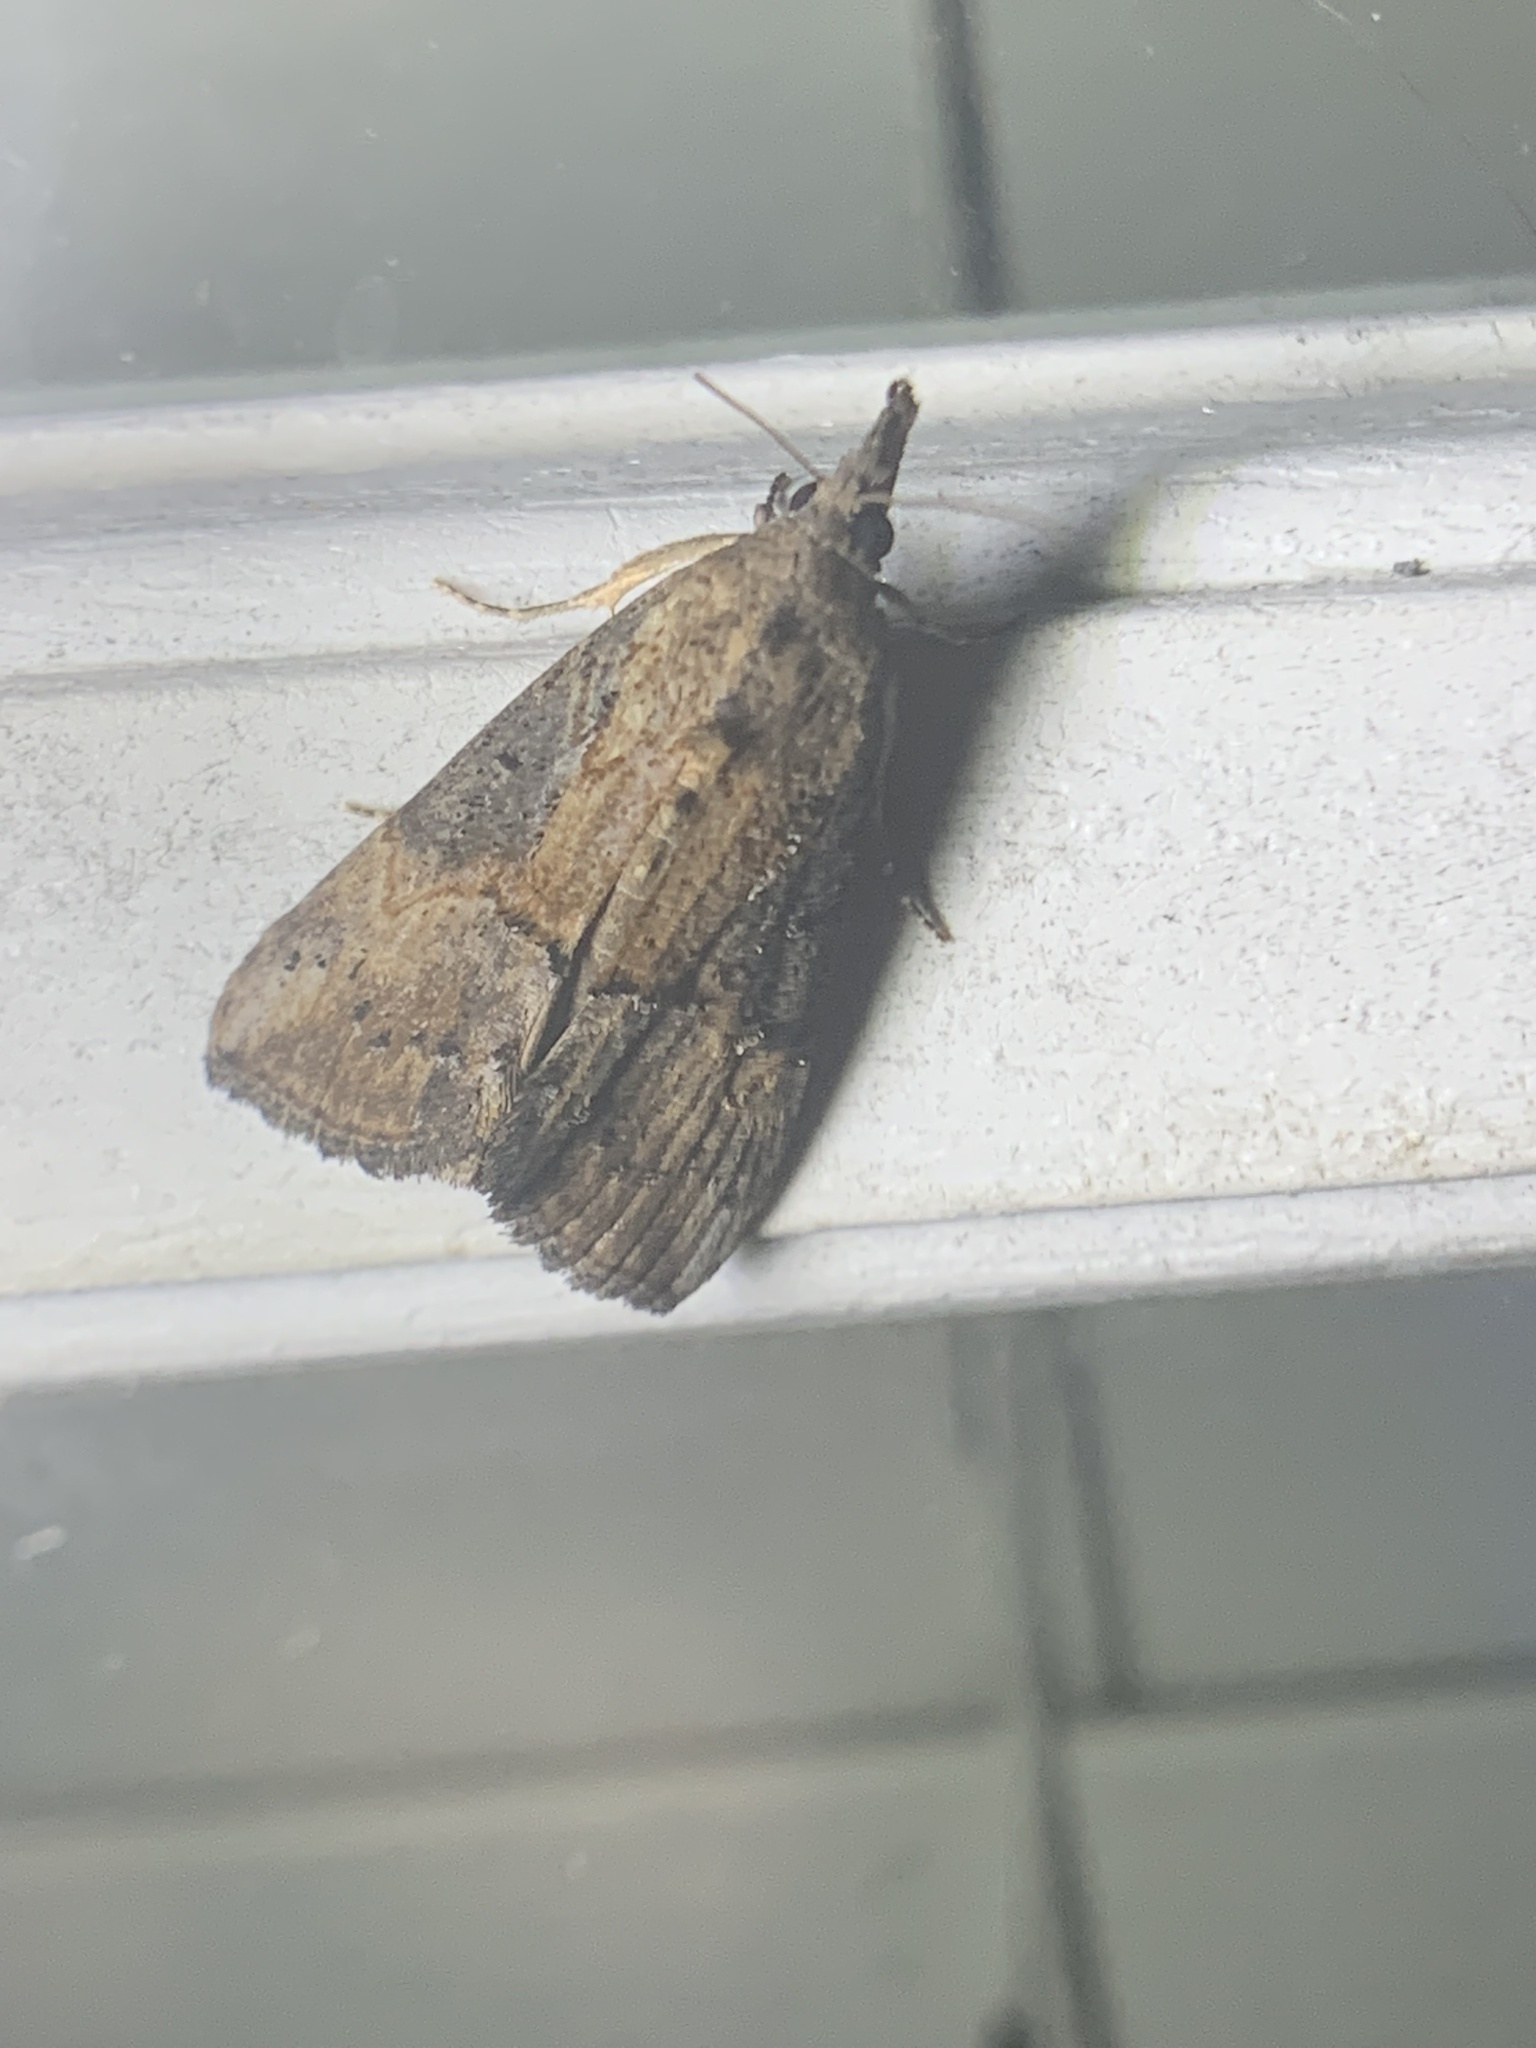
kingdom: Animalia
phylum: Arthropoda
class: Insecta
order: Lepidoptera
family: Erebidae
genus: Hypena
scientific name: Hypena scabra
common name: Green cloverworm
